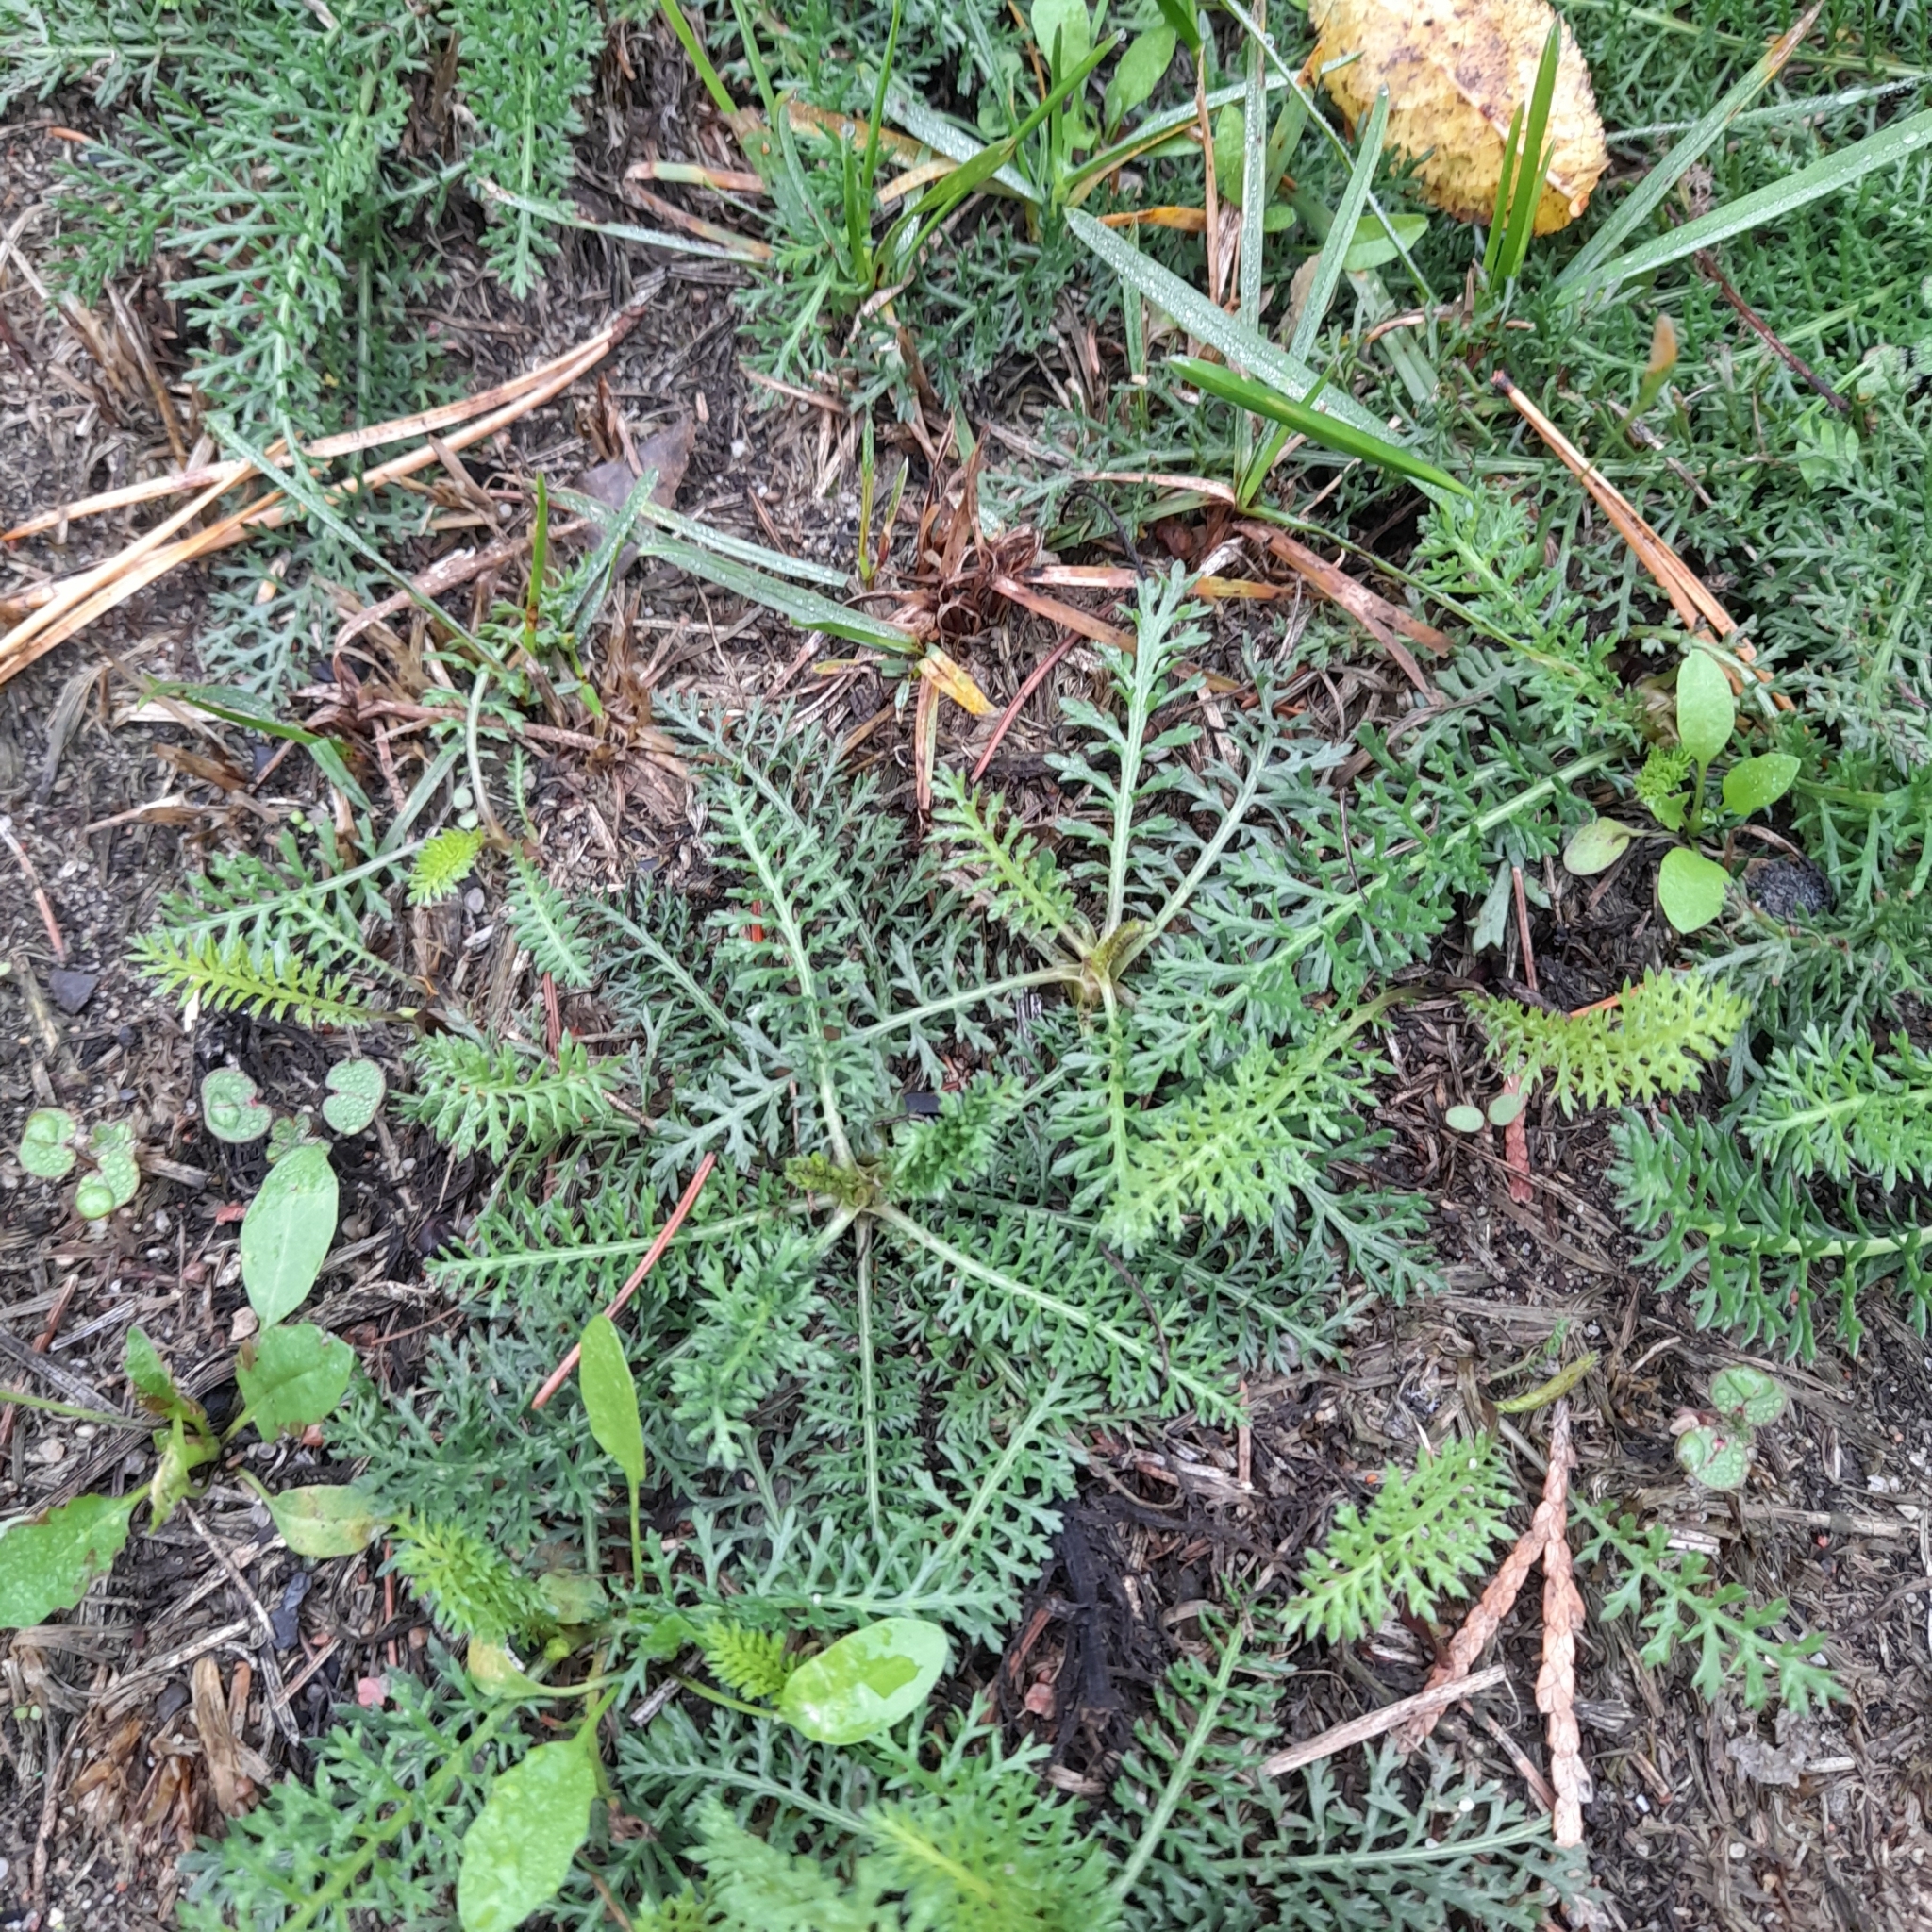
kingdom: Plantae
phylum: Tracheophyta
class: Magnoliopsida
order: Asterales
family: Asteraceae
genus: Achillea
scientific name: Achillea millefolium
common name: Yarrow
